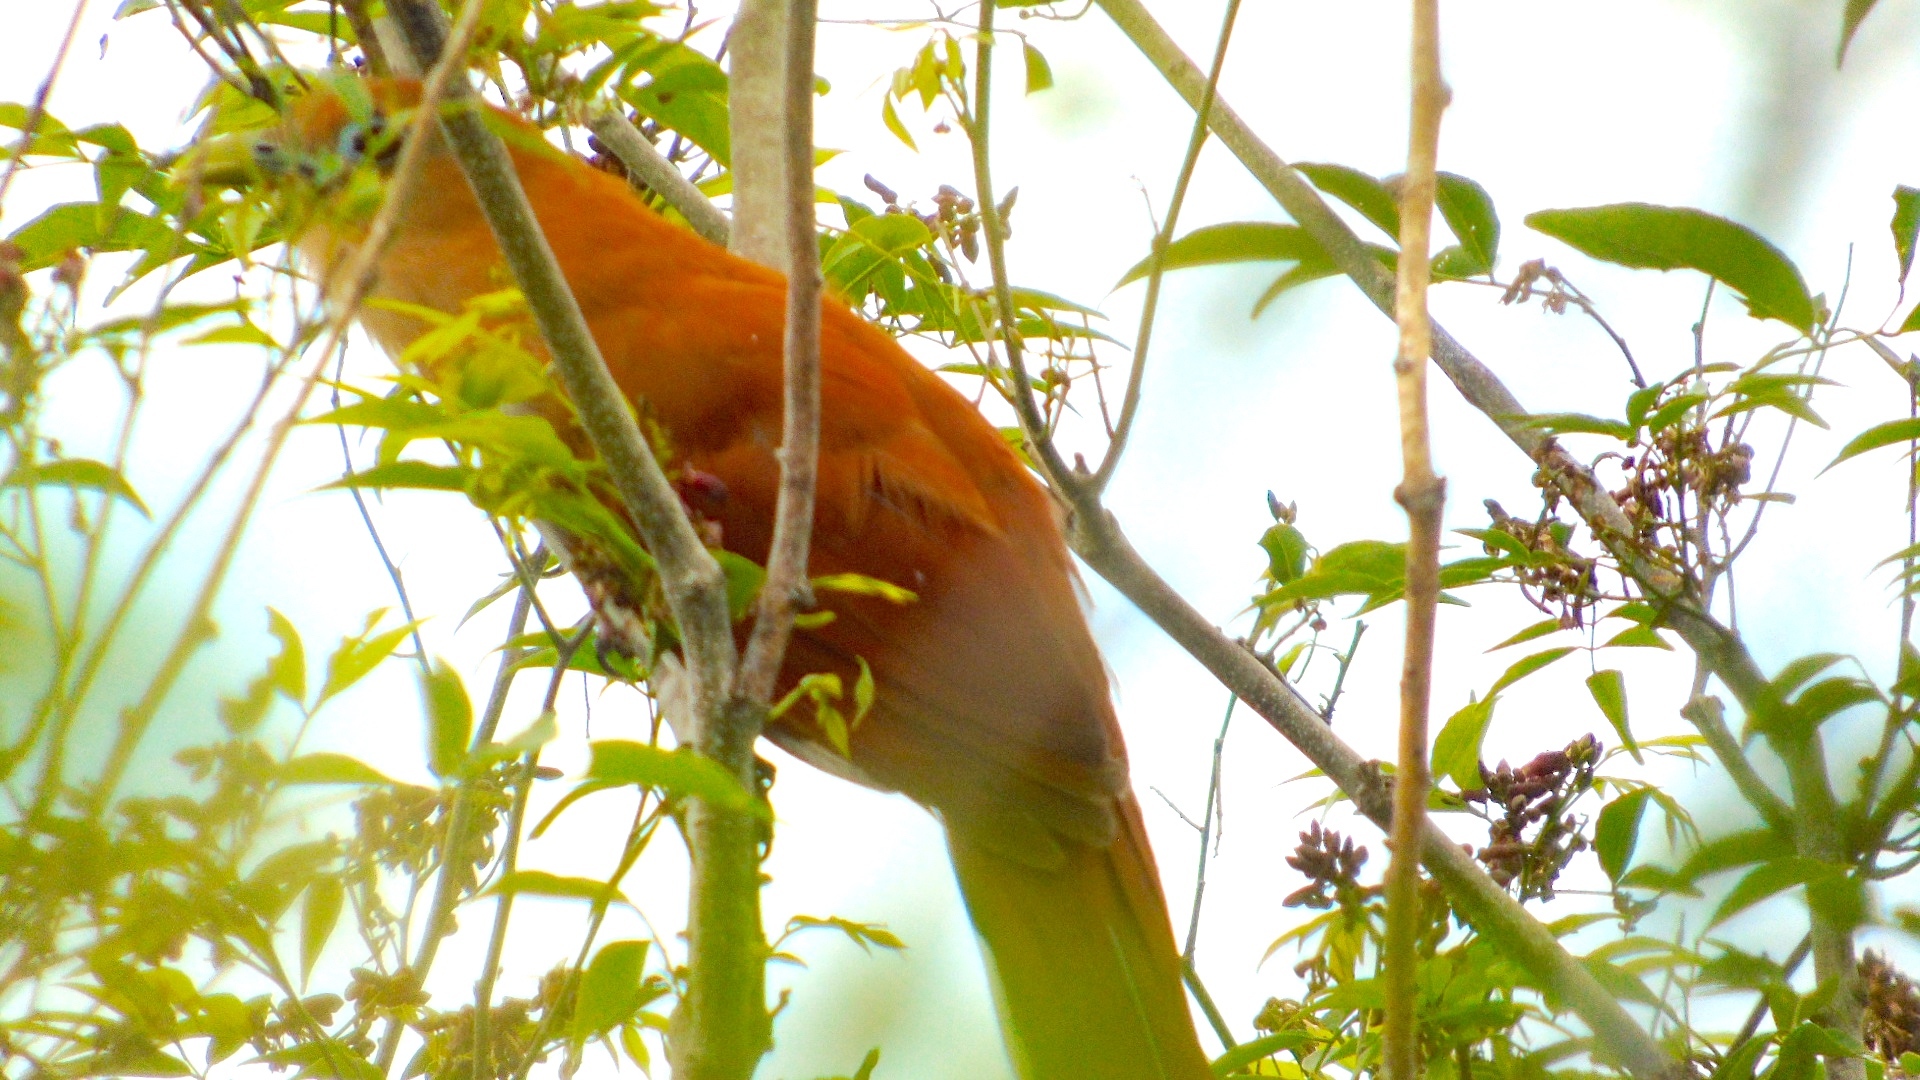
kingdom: Animalia
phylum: Chordata
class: Aves
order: Cuculiformes
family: Cuculidae
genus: Piaya
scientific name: Piaya cayana
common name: Squirrel cuckoo
